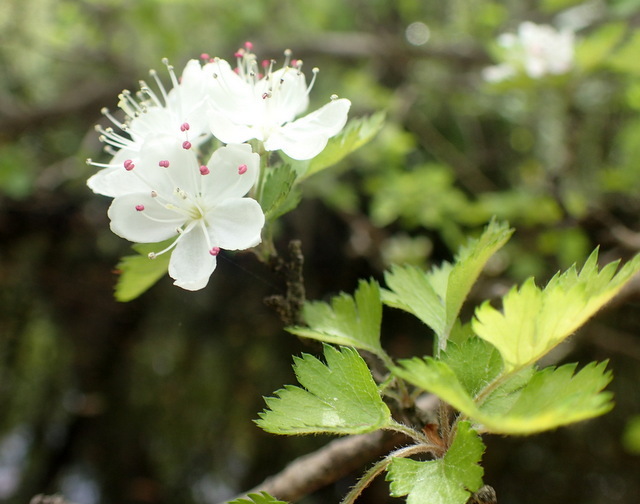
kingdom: Plantae
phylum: Tracheophyta
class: Magnoliopsida
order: Rosales
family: Rosaceae
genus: Crataegus
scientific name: Crataegus marshallii
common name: Parsley-hawthorn
